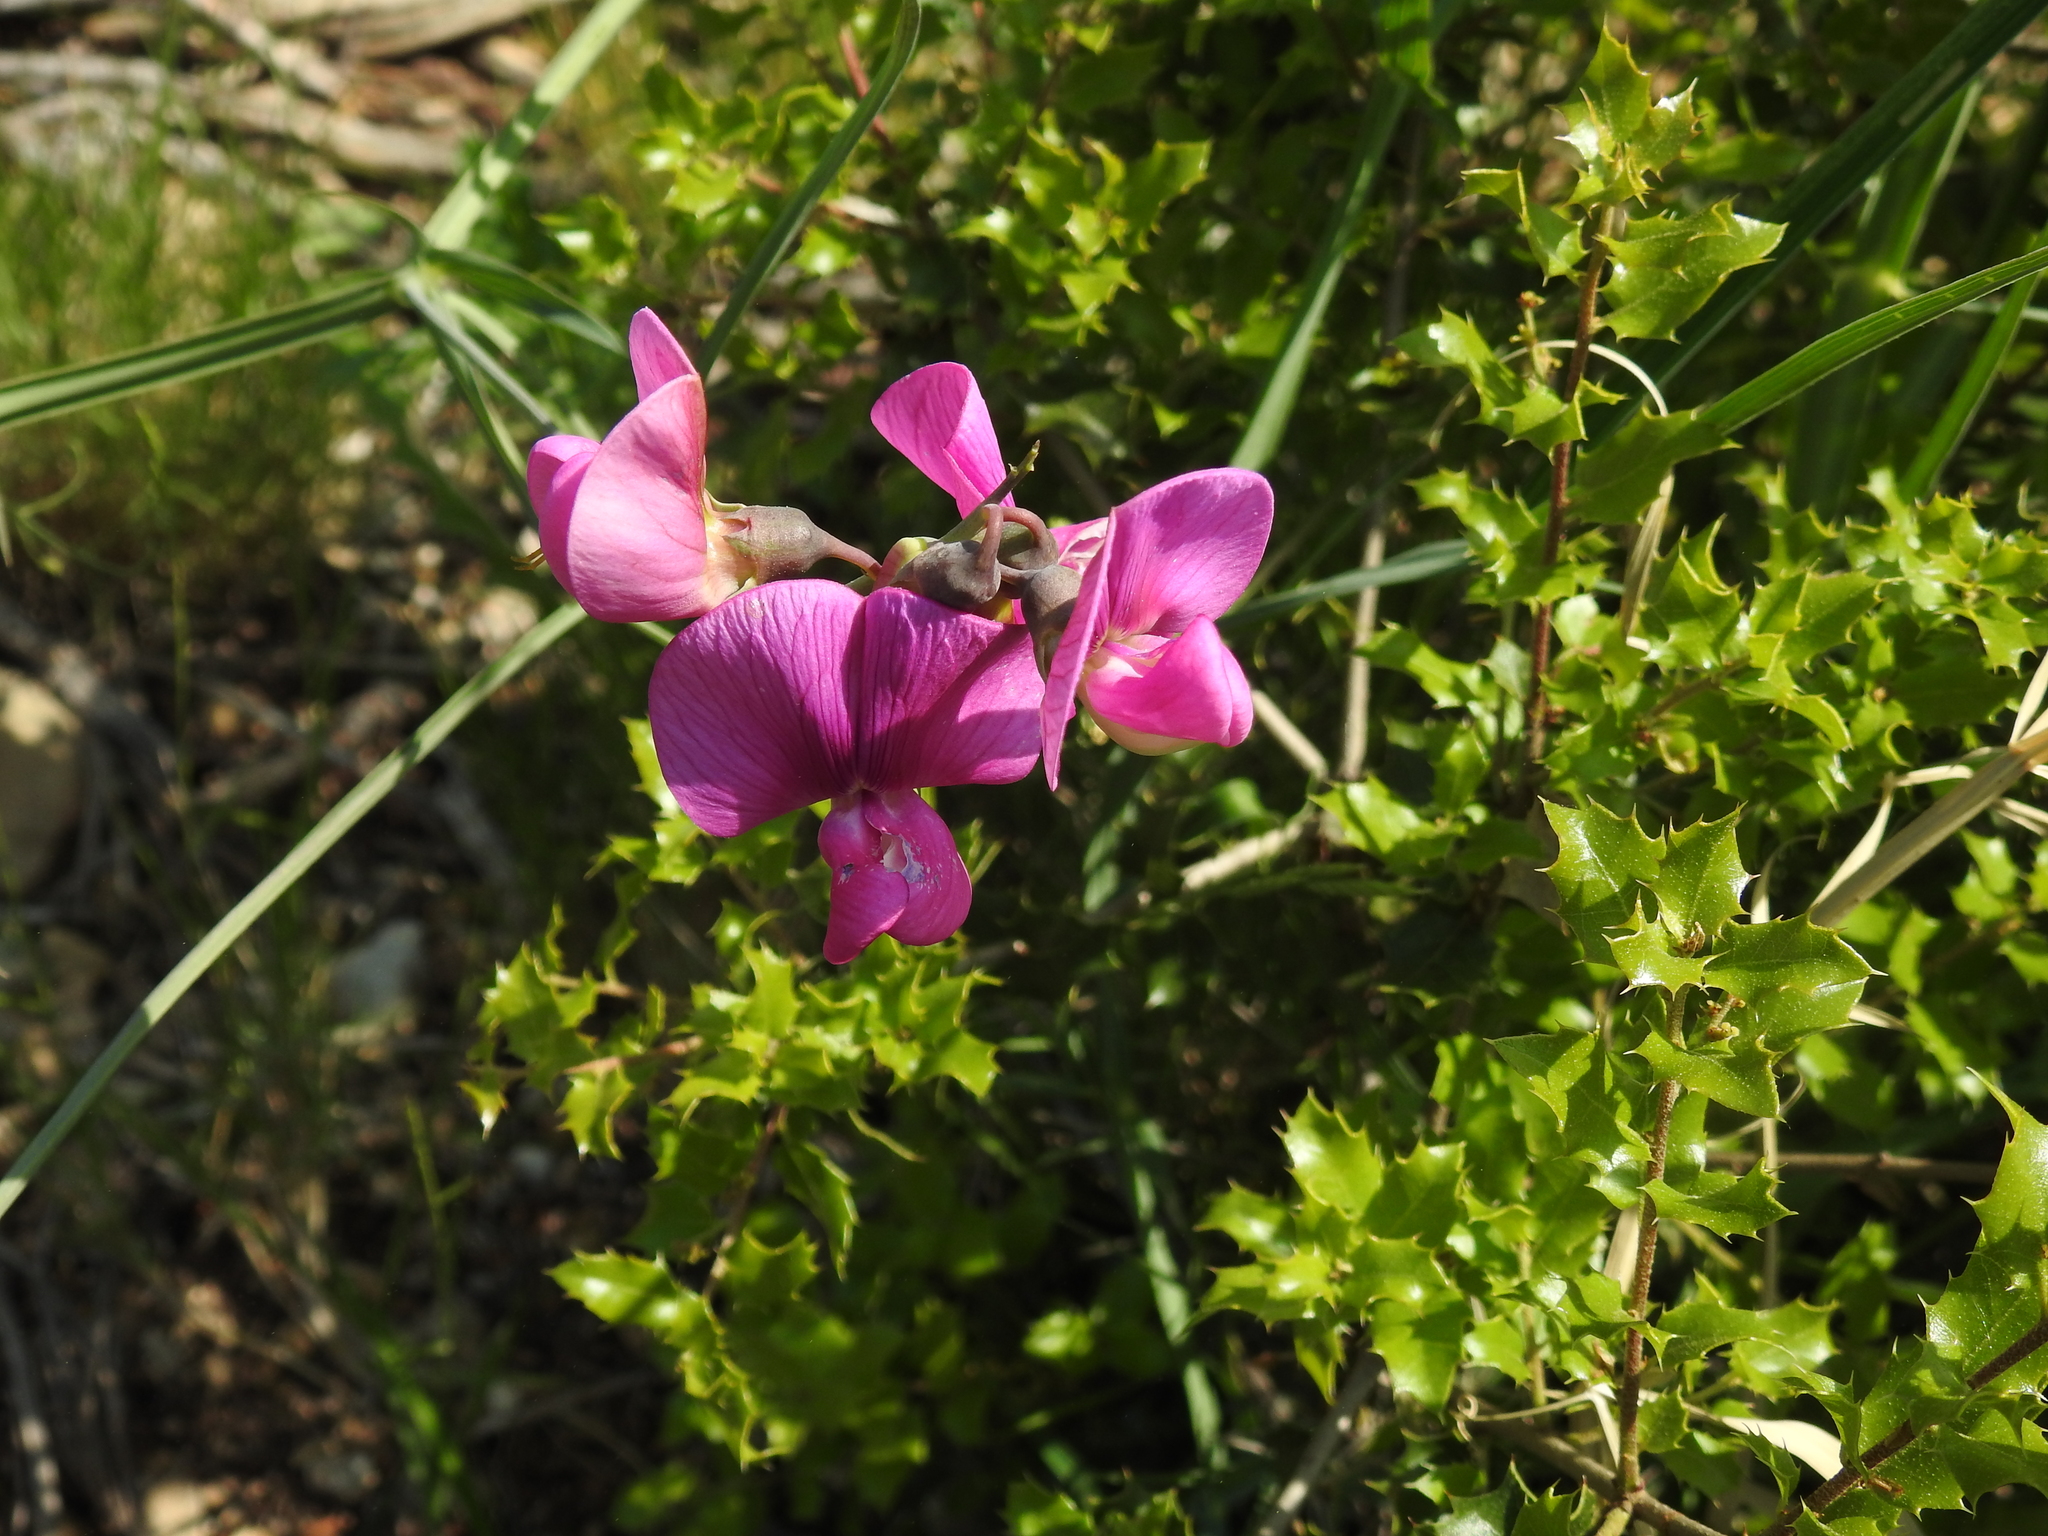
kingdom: Plantae
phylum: Tracheophyta
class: Magnoliopsida
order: Fabales
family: Fabaceae
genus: Lathyrus
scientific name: Lathyrus latifolius
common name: Perennial pea
